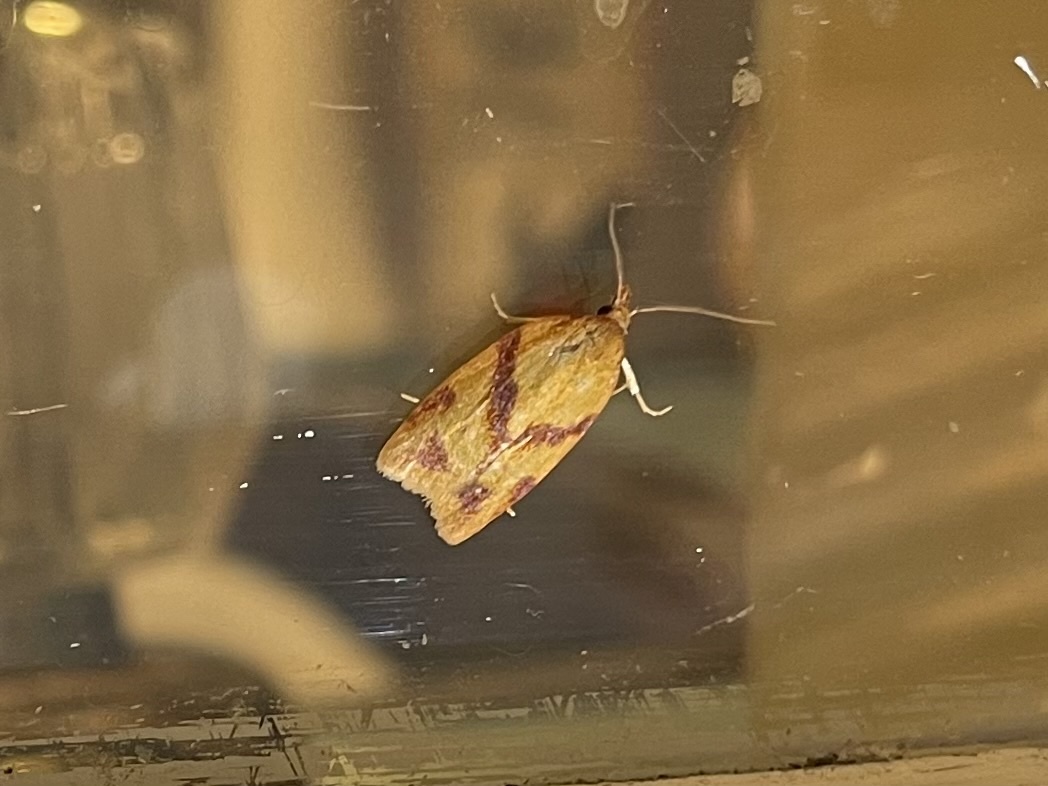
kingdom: Animalia
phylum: Arthropoda
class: Insecta
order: Lepidoptera
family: Tortricidae
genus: Sparganothis
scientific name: Sparganothis unifasciana
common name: One-lined sparganothis moth
